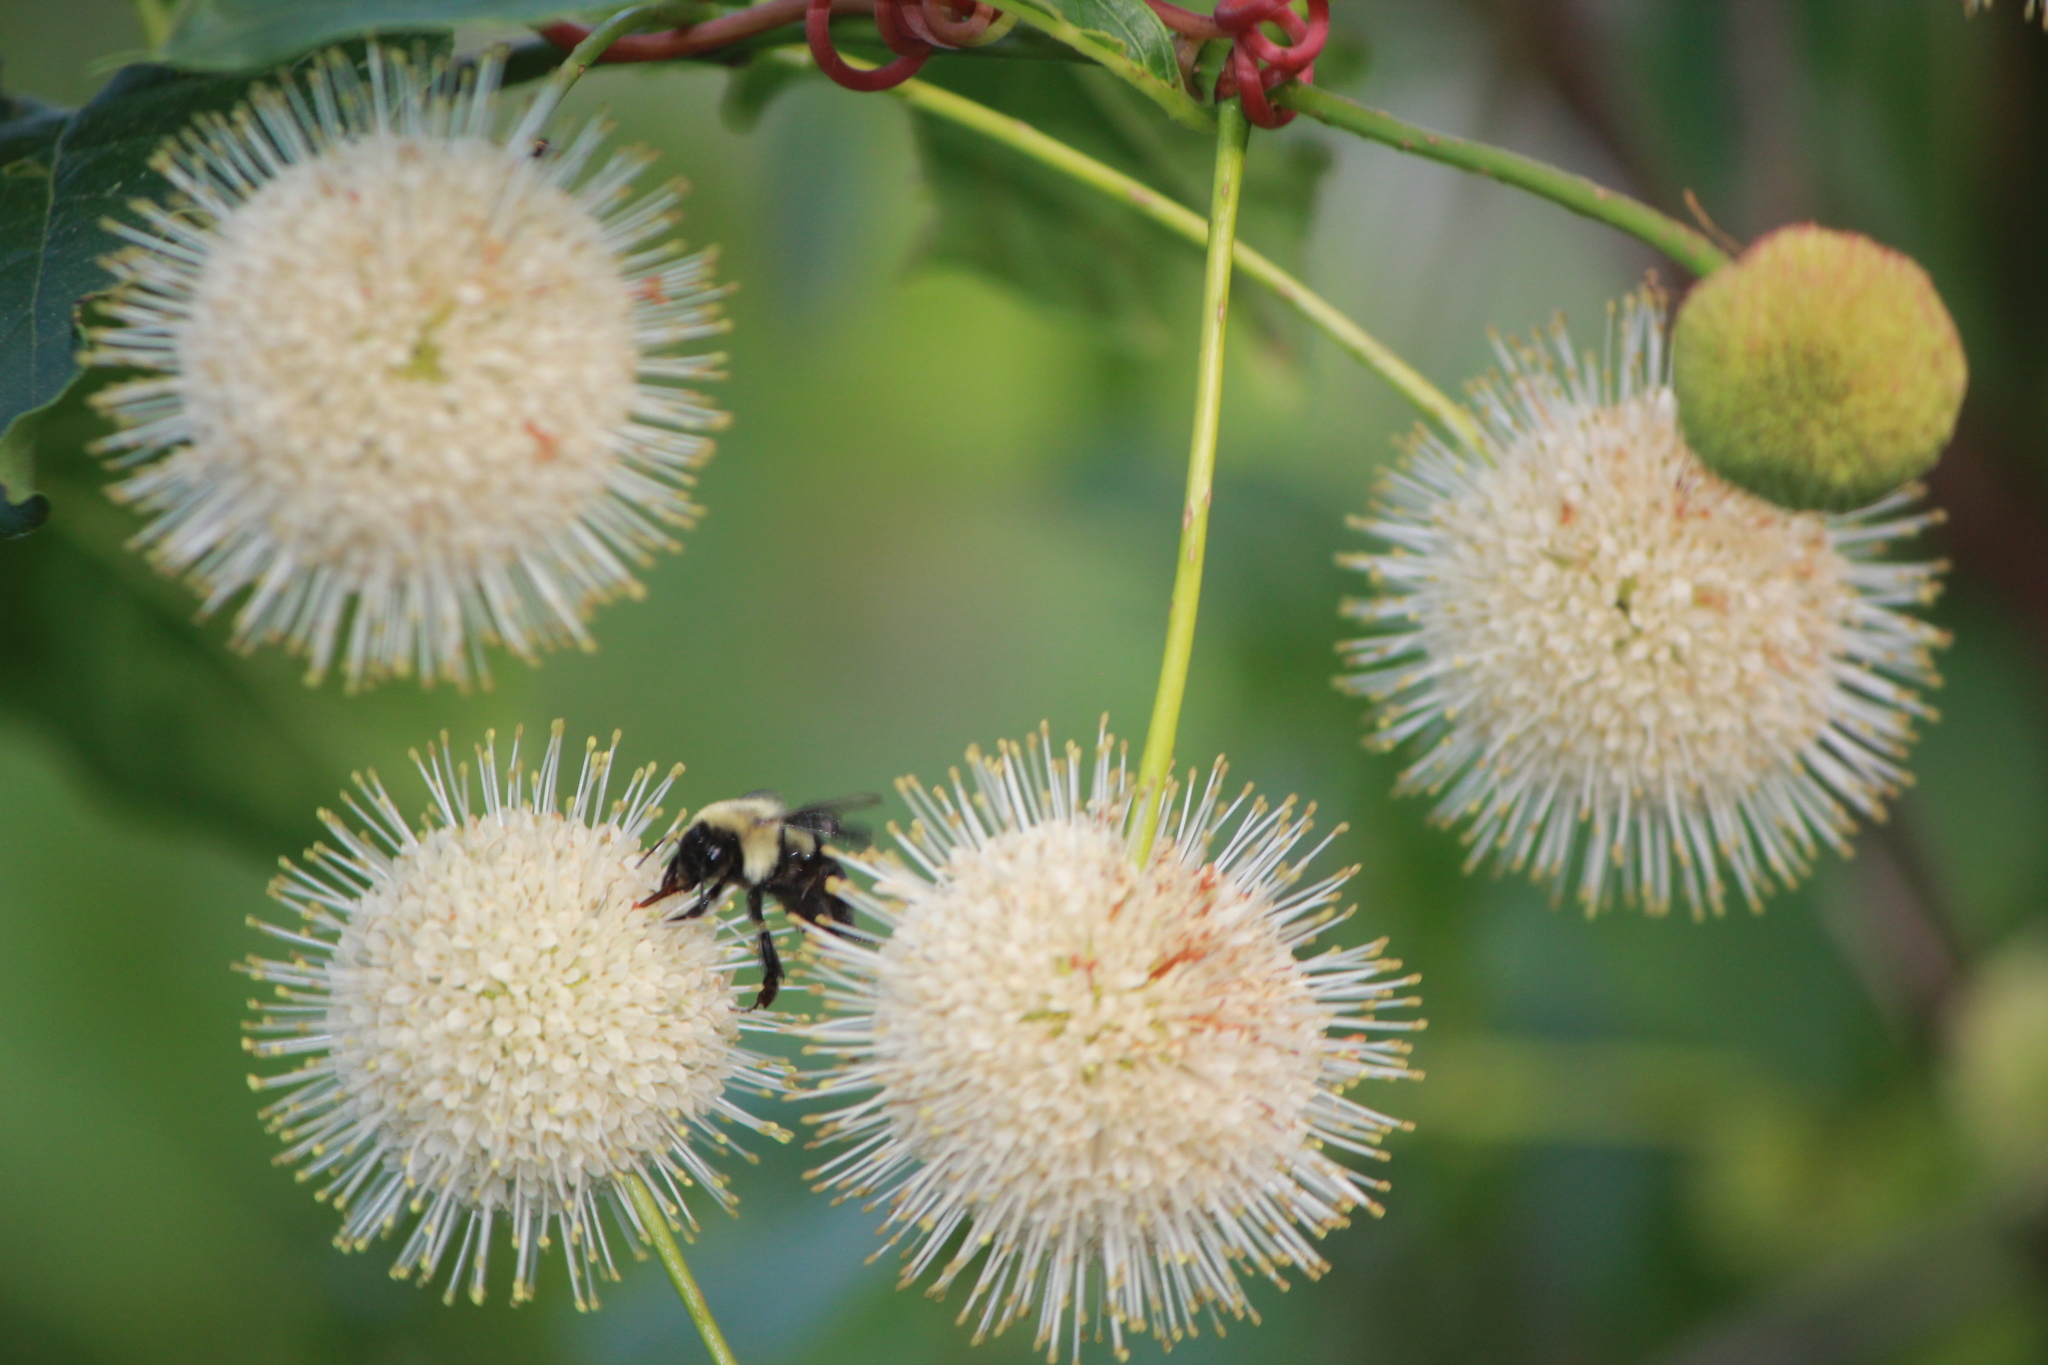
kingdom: Plantae
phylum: Tracheophyta
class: Magnoliopsida
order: Gentianales
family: Rubiaceae
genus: Cephalanthus
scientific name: Cephalanthus occidentalis
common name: Button-willow
